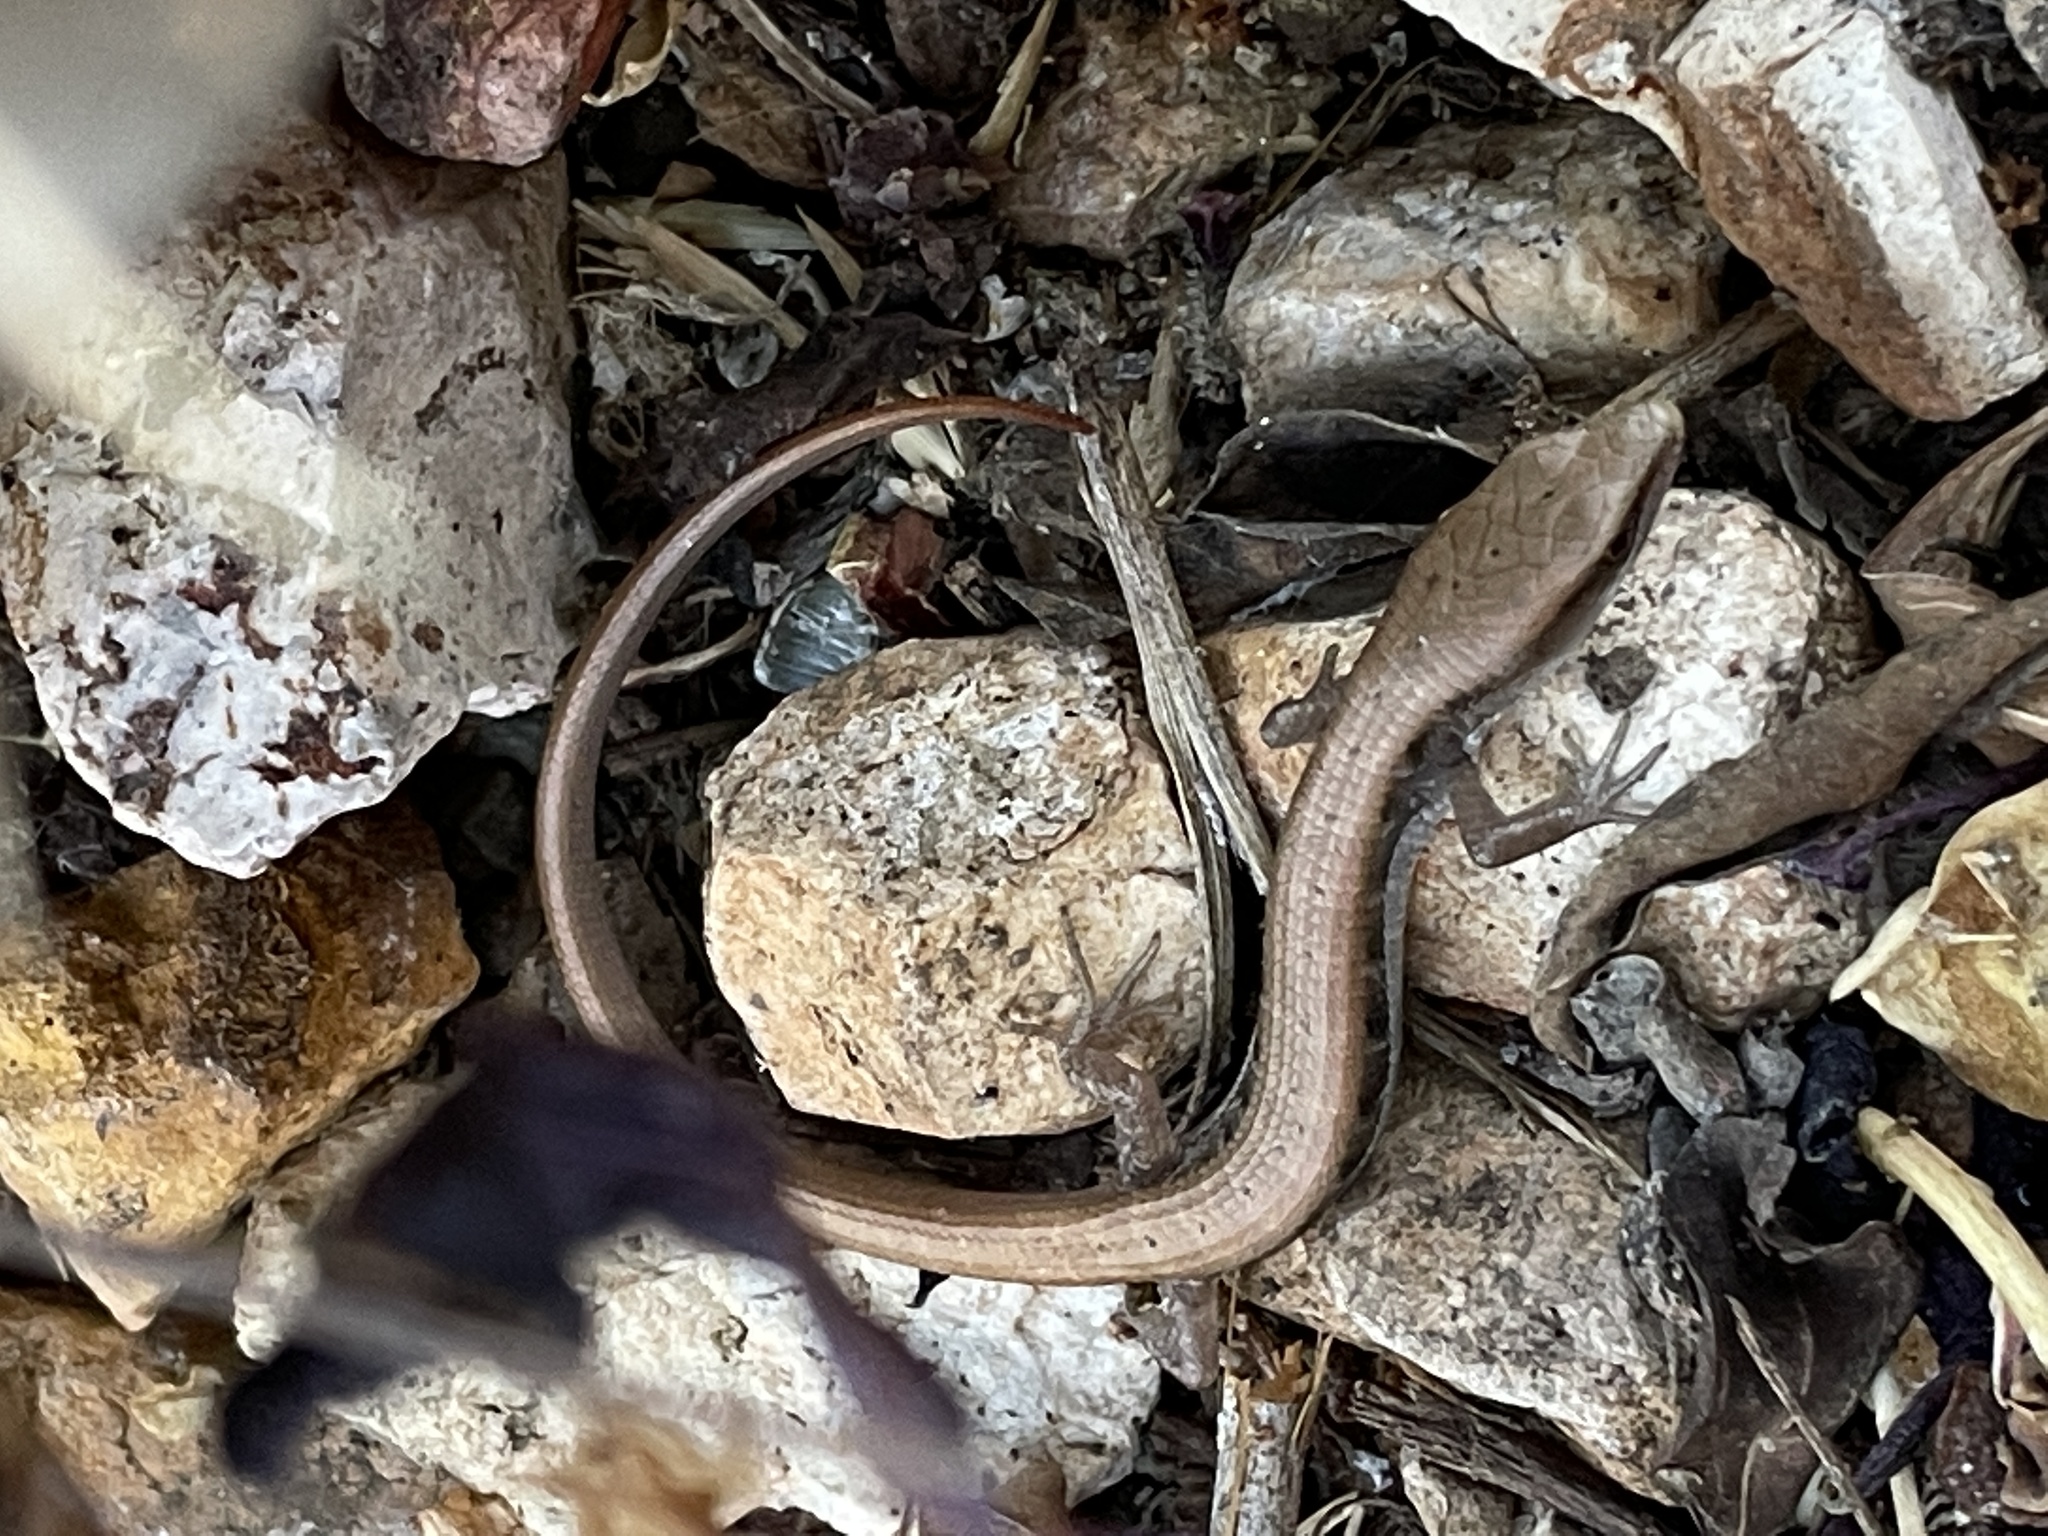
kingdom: Animalia
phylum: Chordata
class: Squamata
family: Anguidae
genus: Elgaria
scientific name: Elgaria multicarinata
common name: Southern alligator lizard
